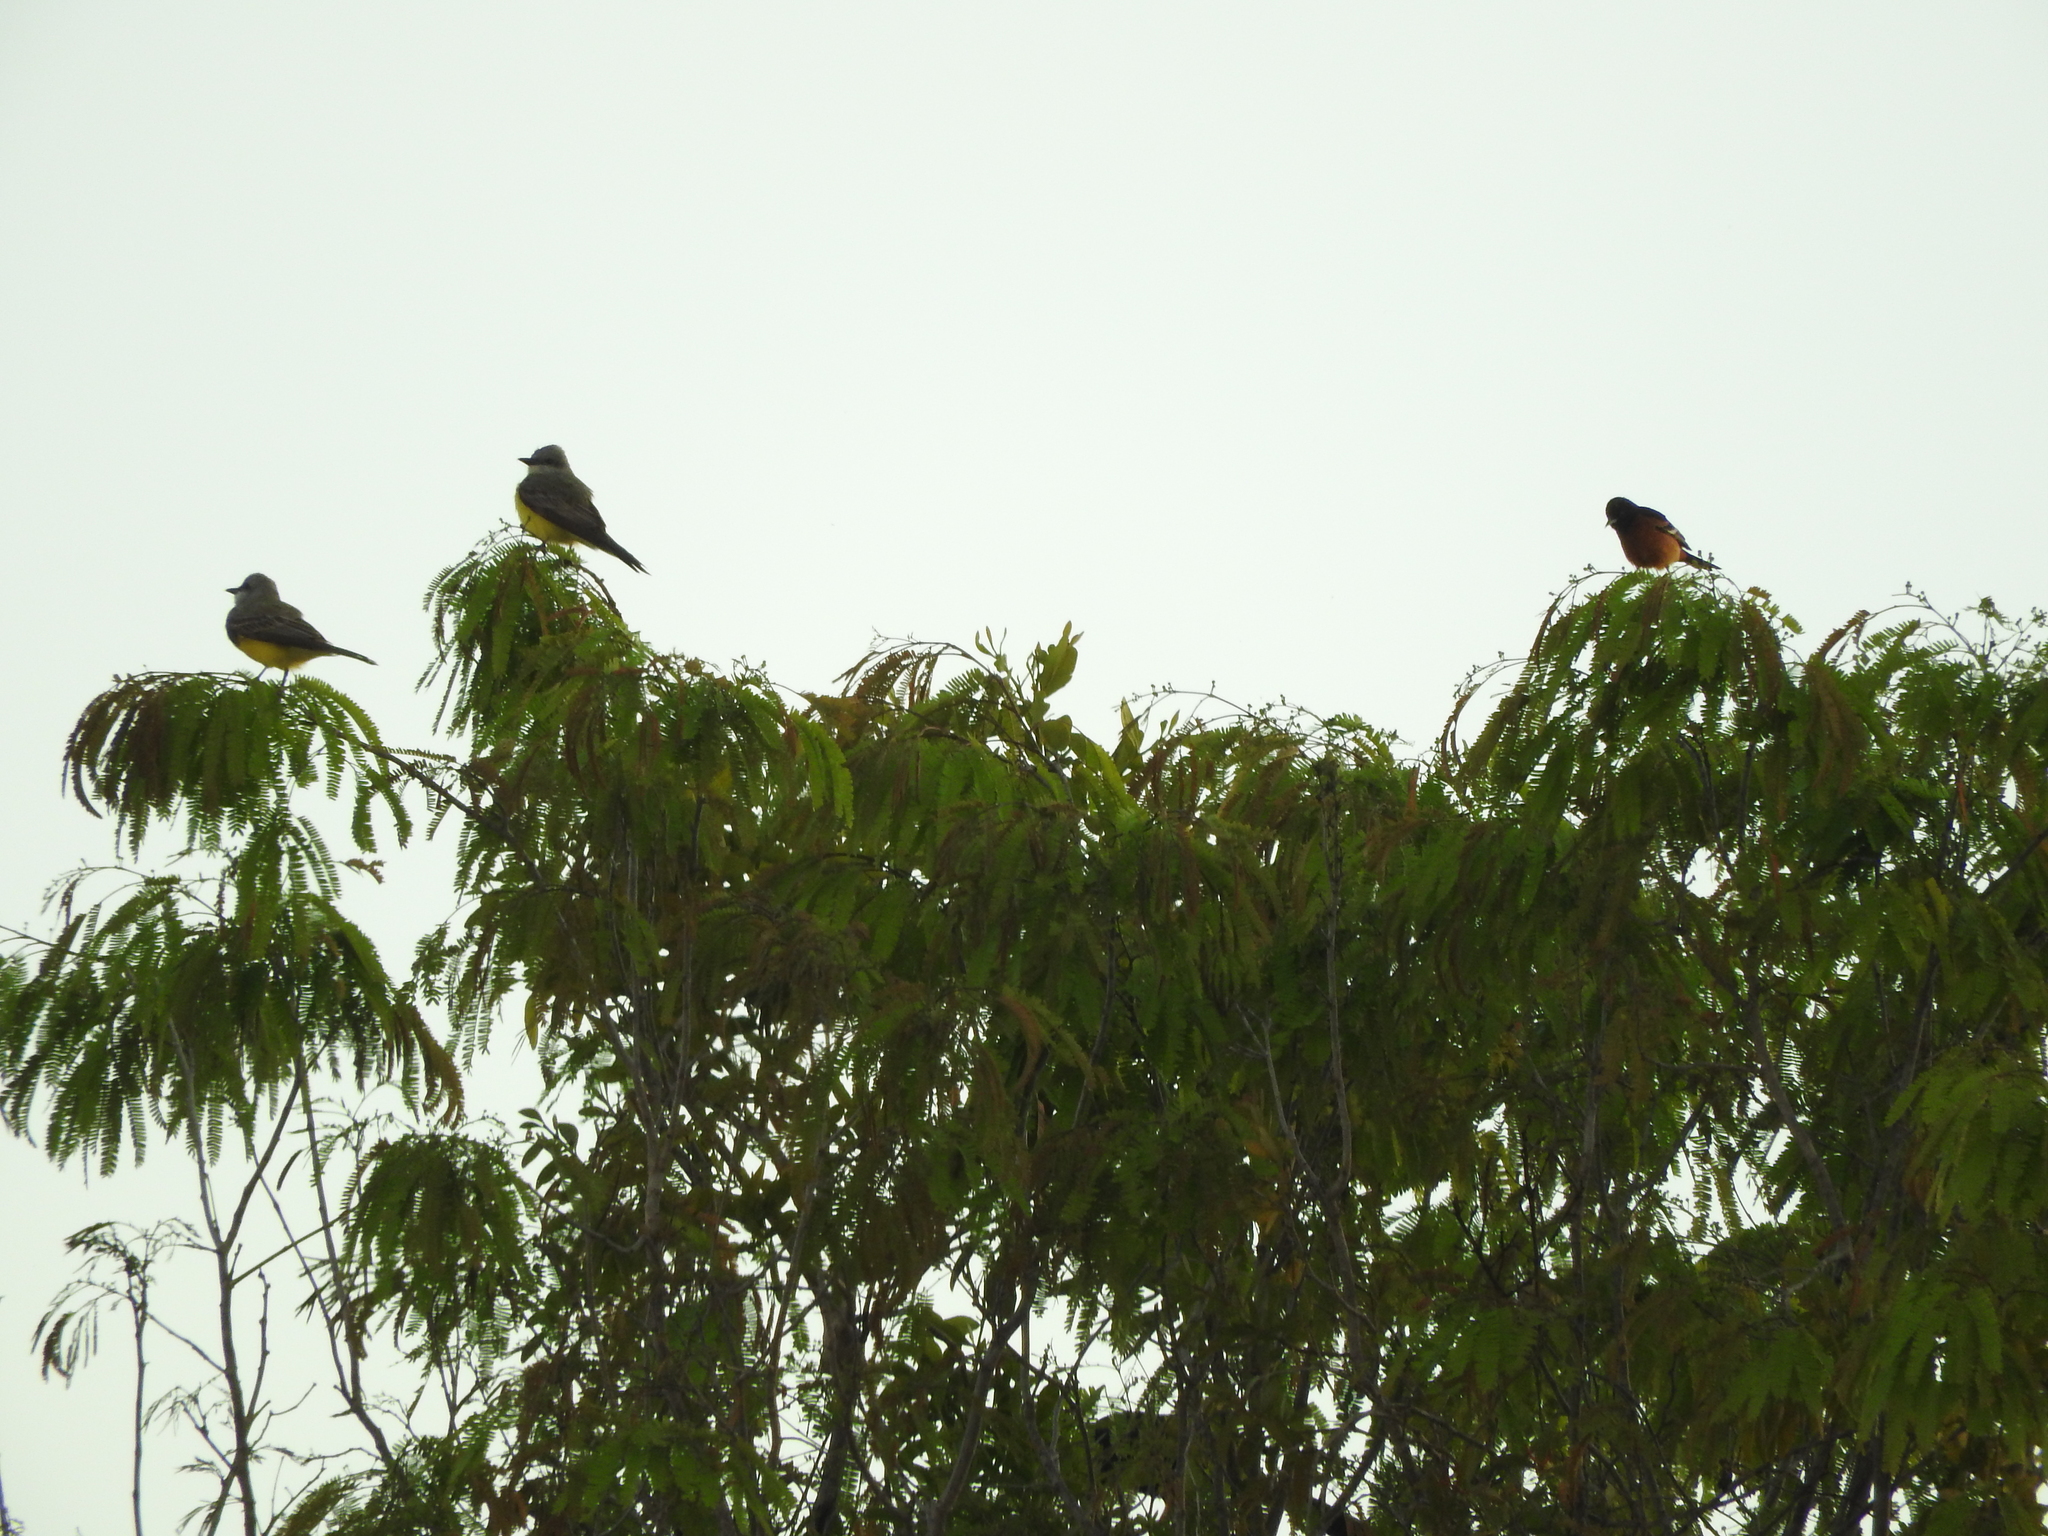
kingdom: Animalia
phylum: Chordata
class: Aves
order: Passeriformes
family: Icteridae
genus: Icterus
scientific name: Icterus spurius
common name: Orchard oriole
